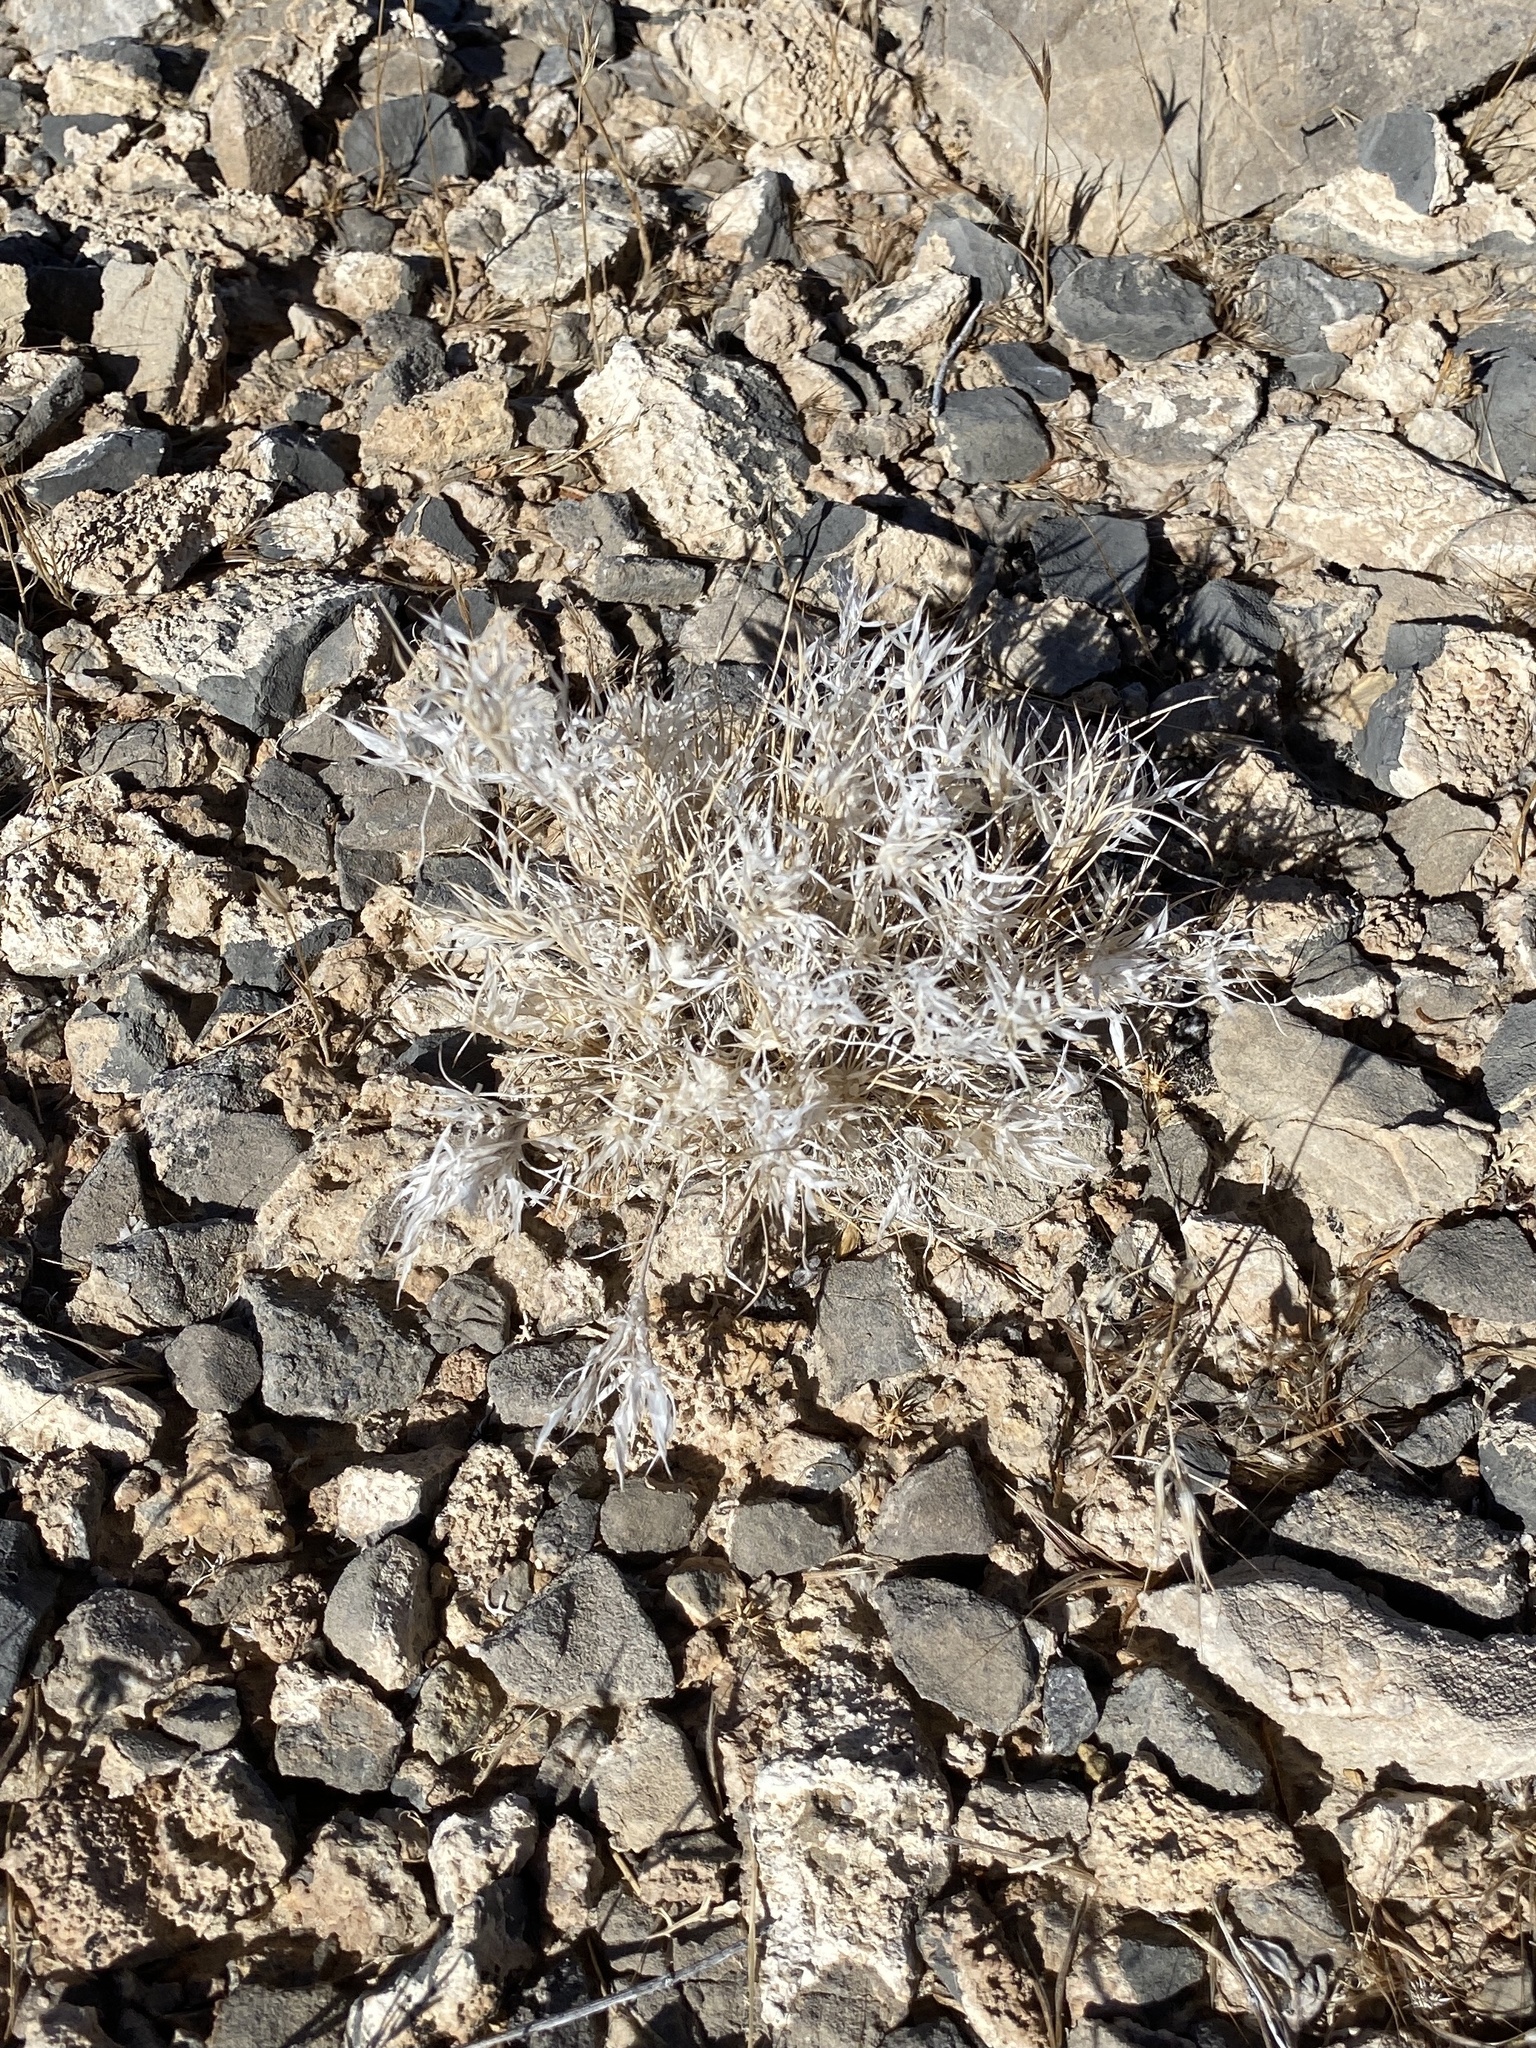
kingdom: Plantae
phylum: Tracheophyta
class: Liliopsida
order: Poales
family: Poaceae
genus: Dasyochloa
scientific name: Dasyochloa pulchella
